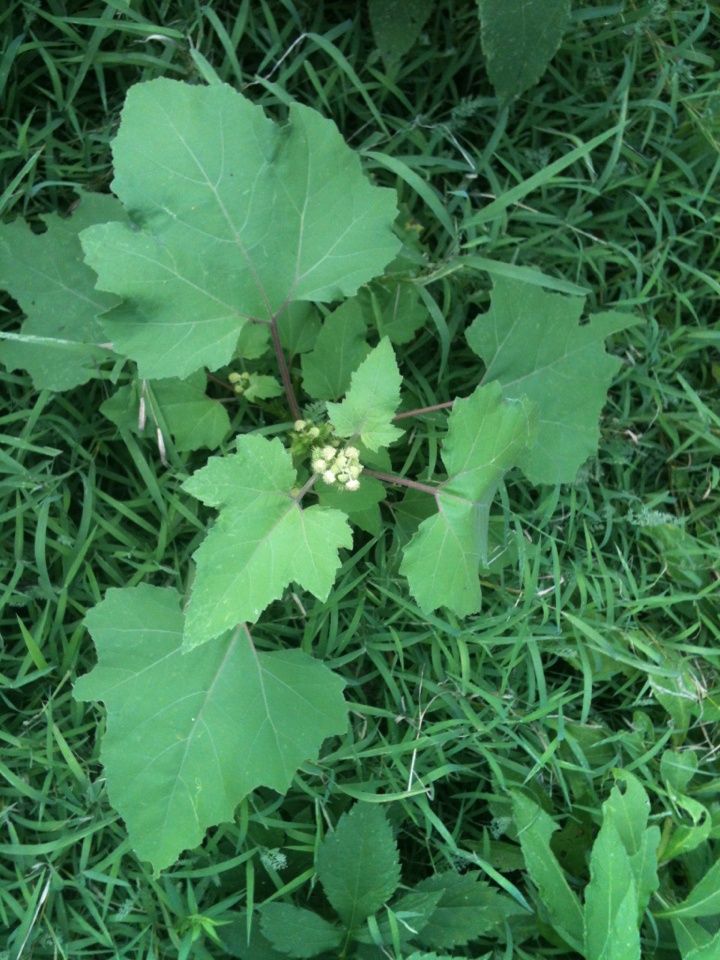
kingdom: Plantae
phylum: Tracheophyta
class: Magnoliopsida
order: Asterales
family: Asteraceae
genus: Xanthium
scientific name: Xanthium strumarium
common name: Rough cocklebur
